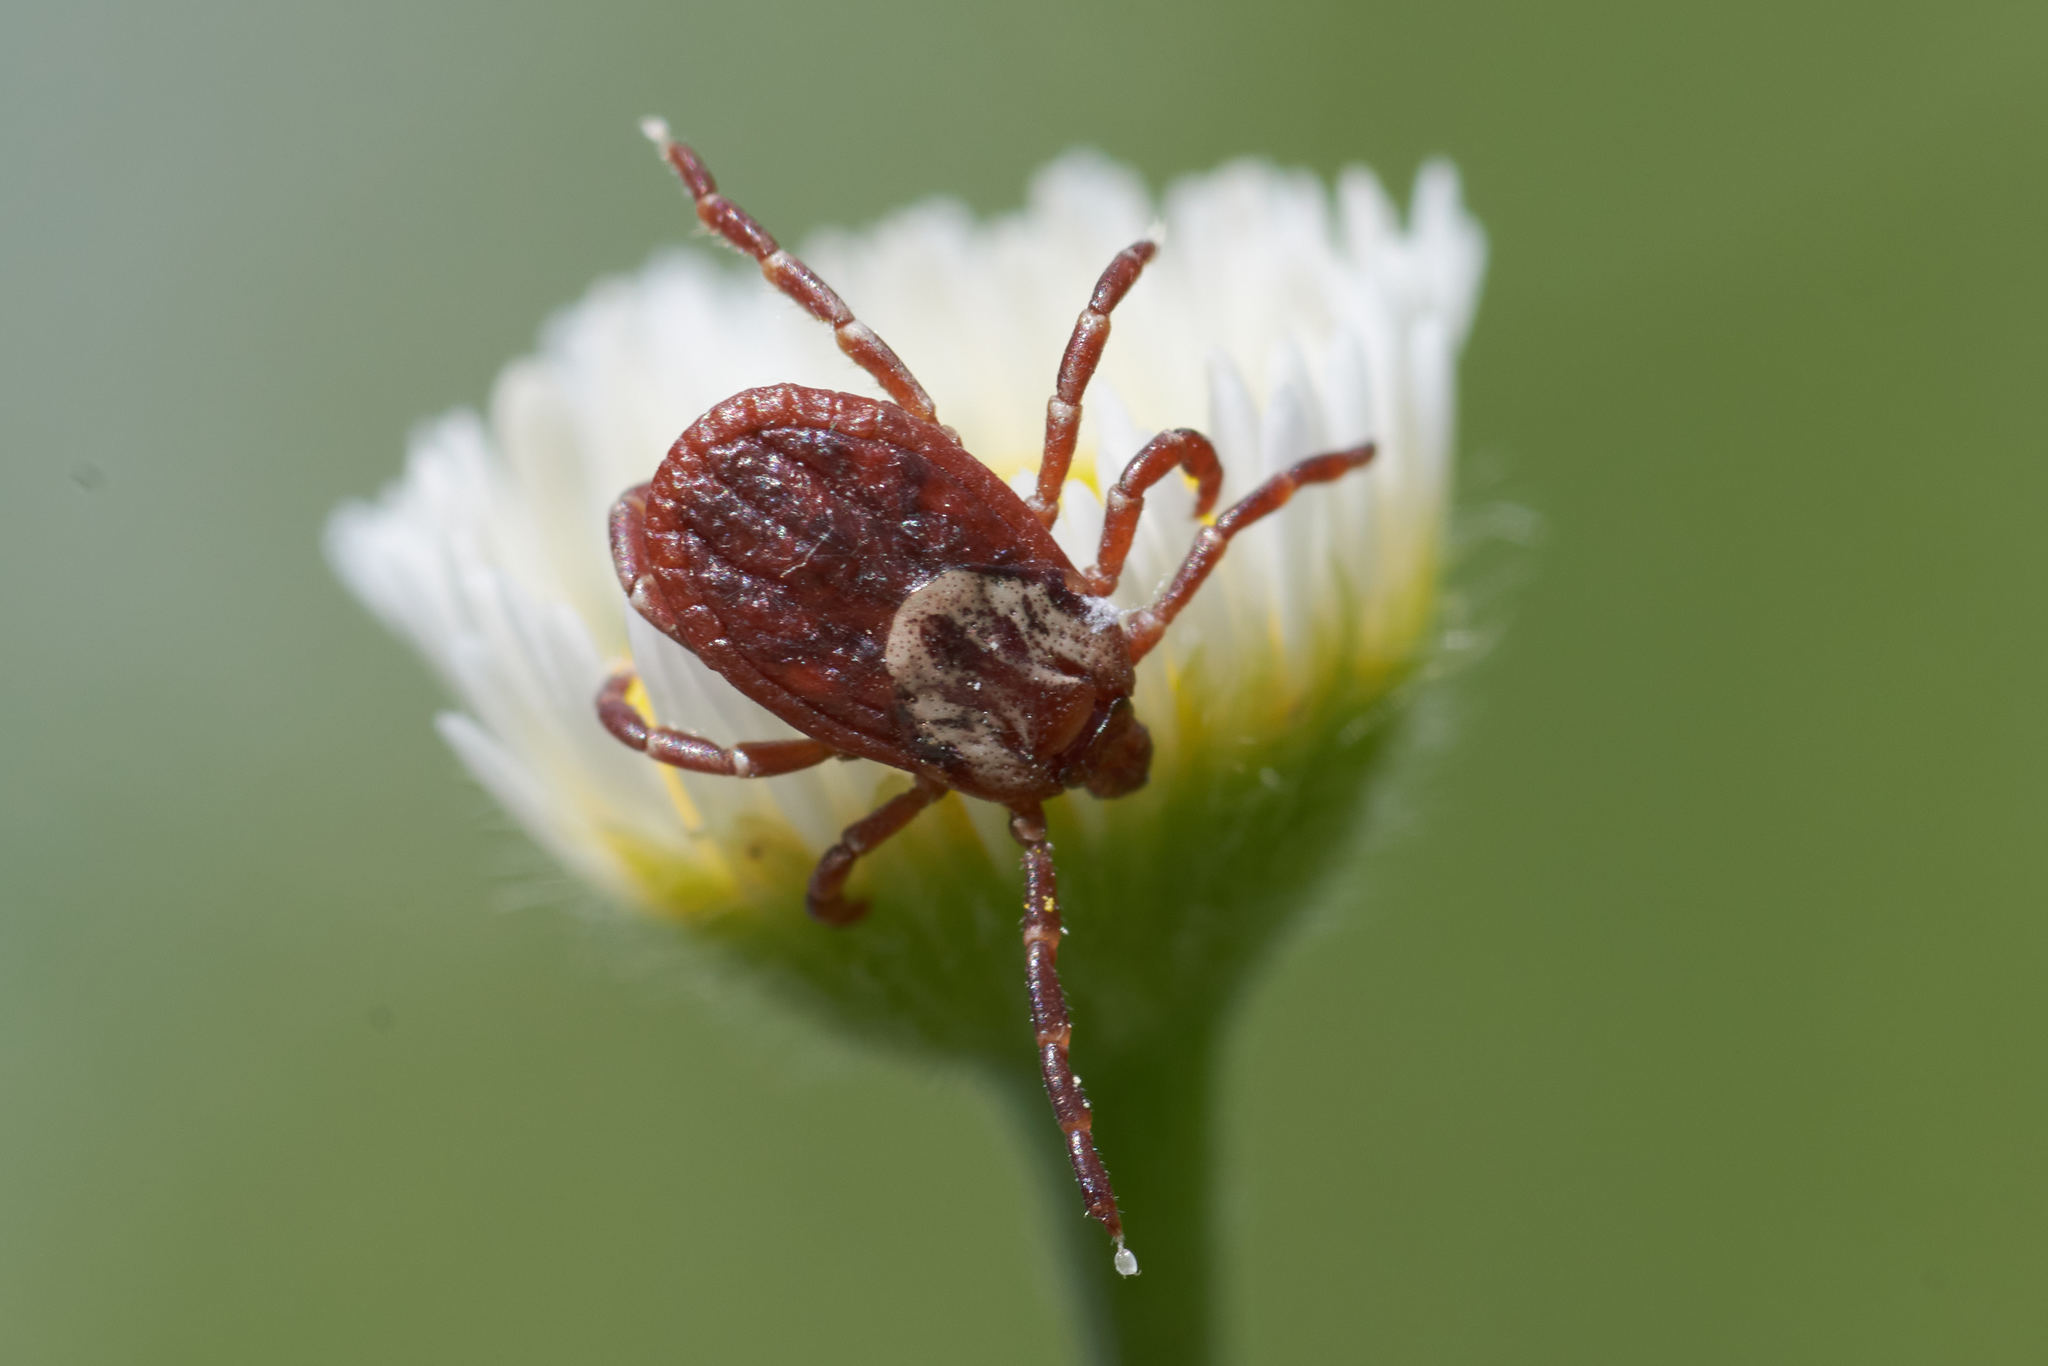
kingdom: Animalia
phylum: Arthropoda
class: Arachnida
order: Ixodida
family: Ixodidae
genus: Dermacentor
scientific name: Dermacentor variabilis
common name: American dog tick
